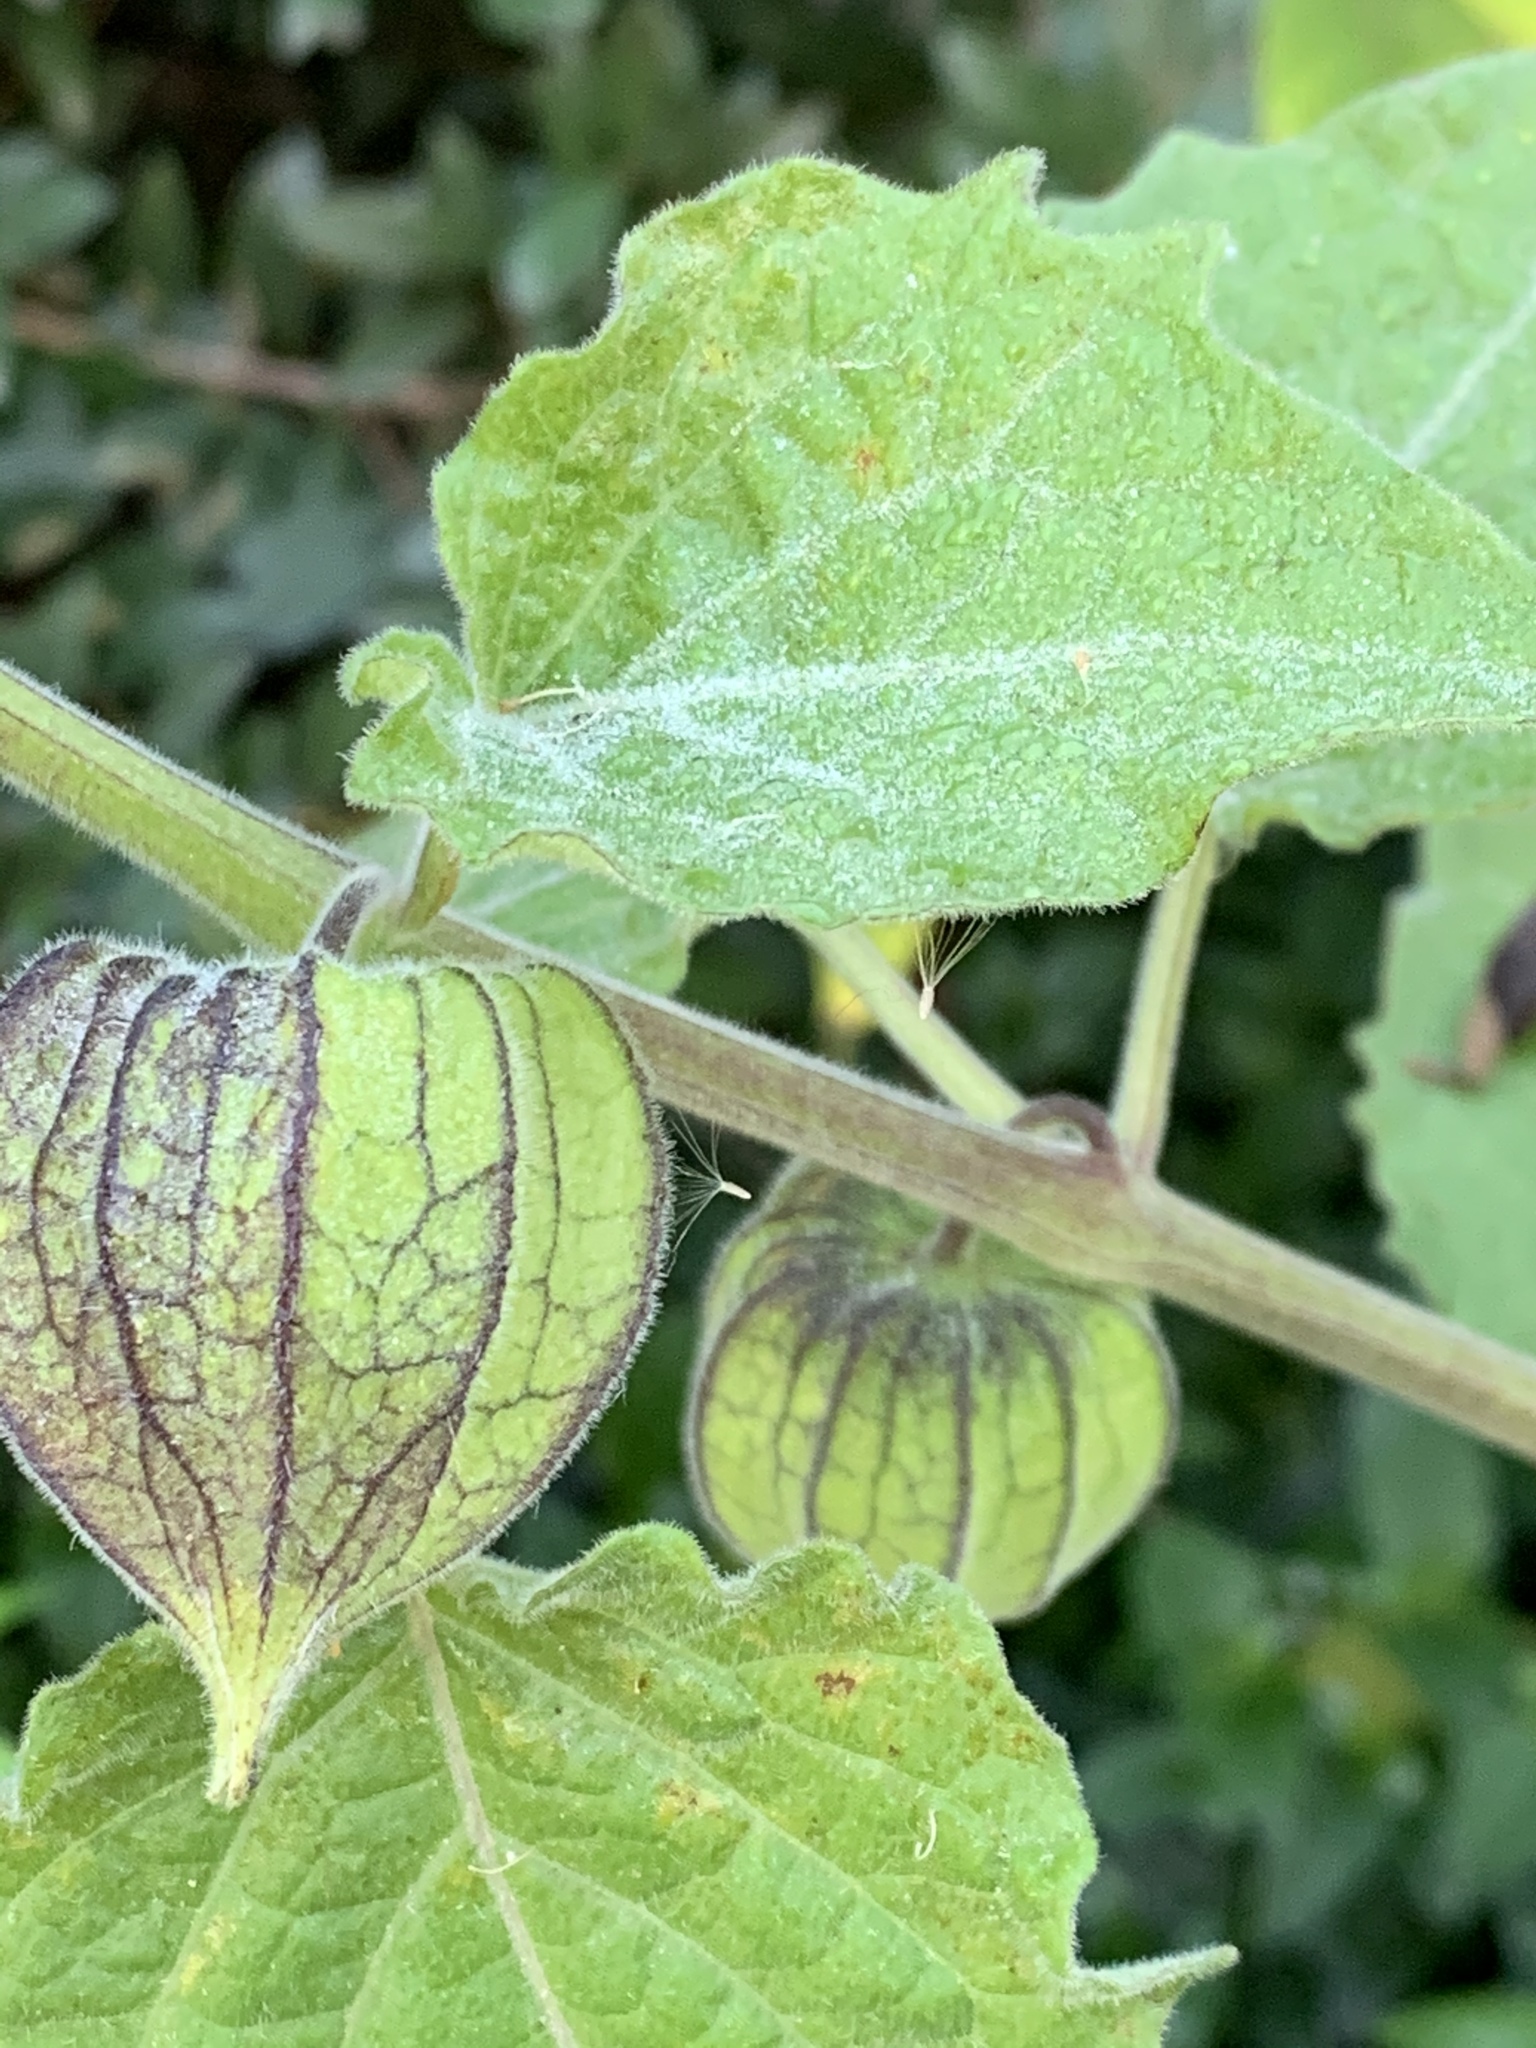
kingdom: Plantae
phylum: Tracheophyta
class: Magnoliopsida
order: Solanales
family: Solanaceae
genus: Physalis
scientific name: Physalis peruviana
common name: Cape-gooseberry
